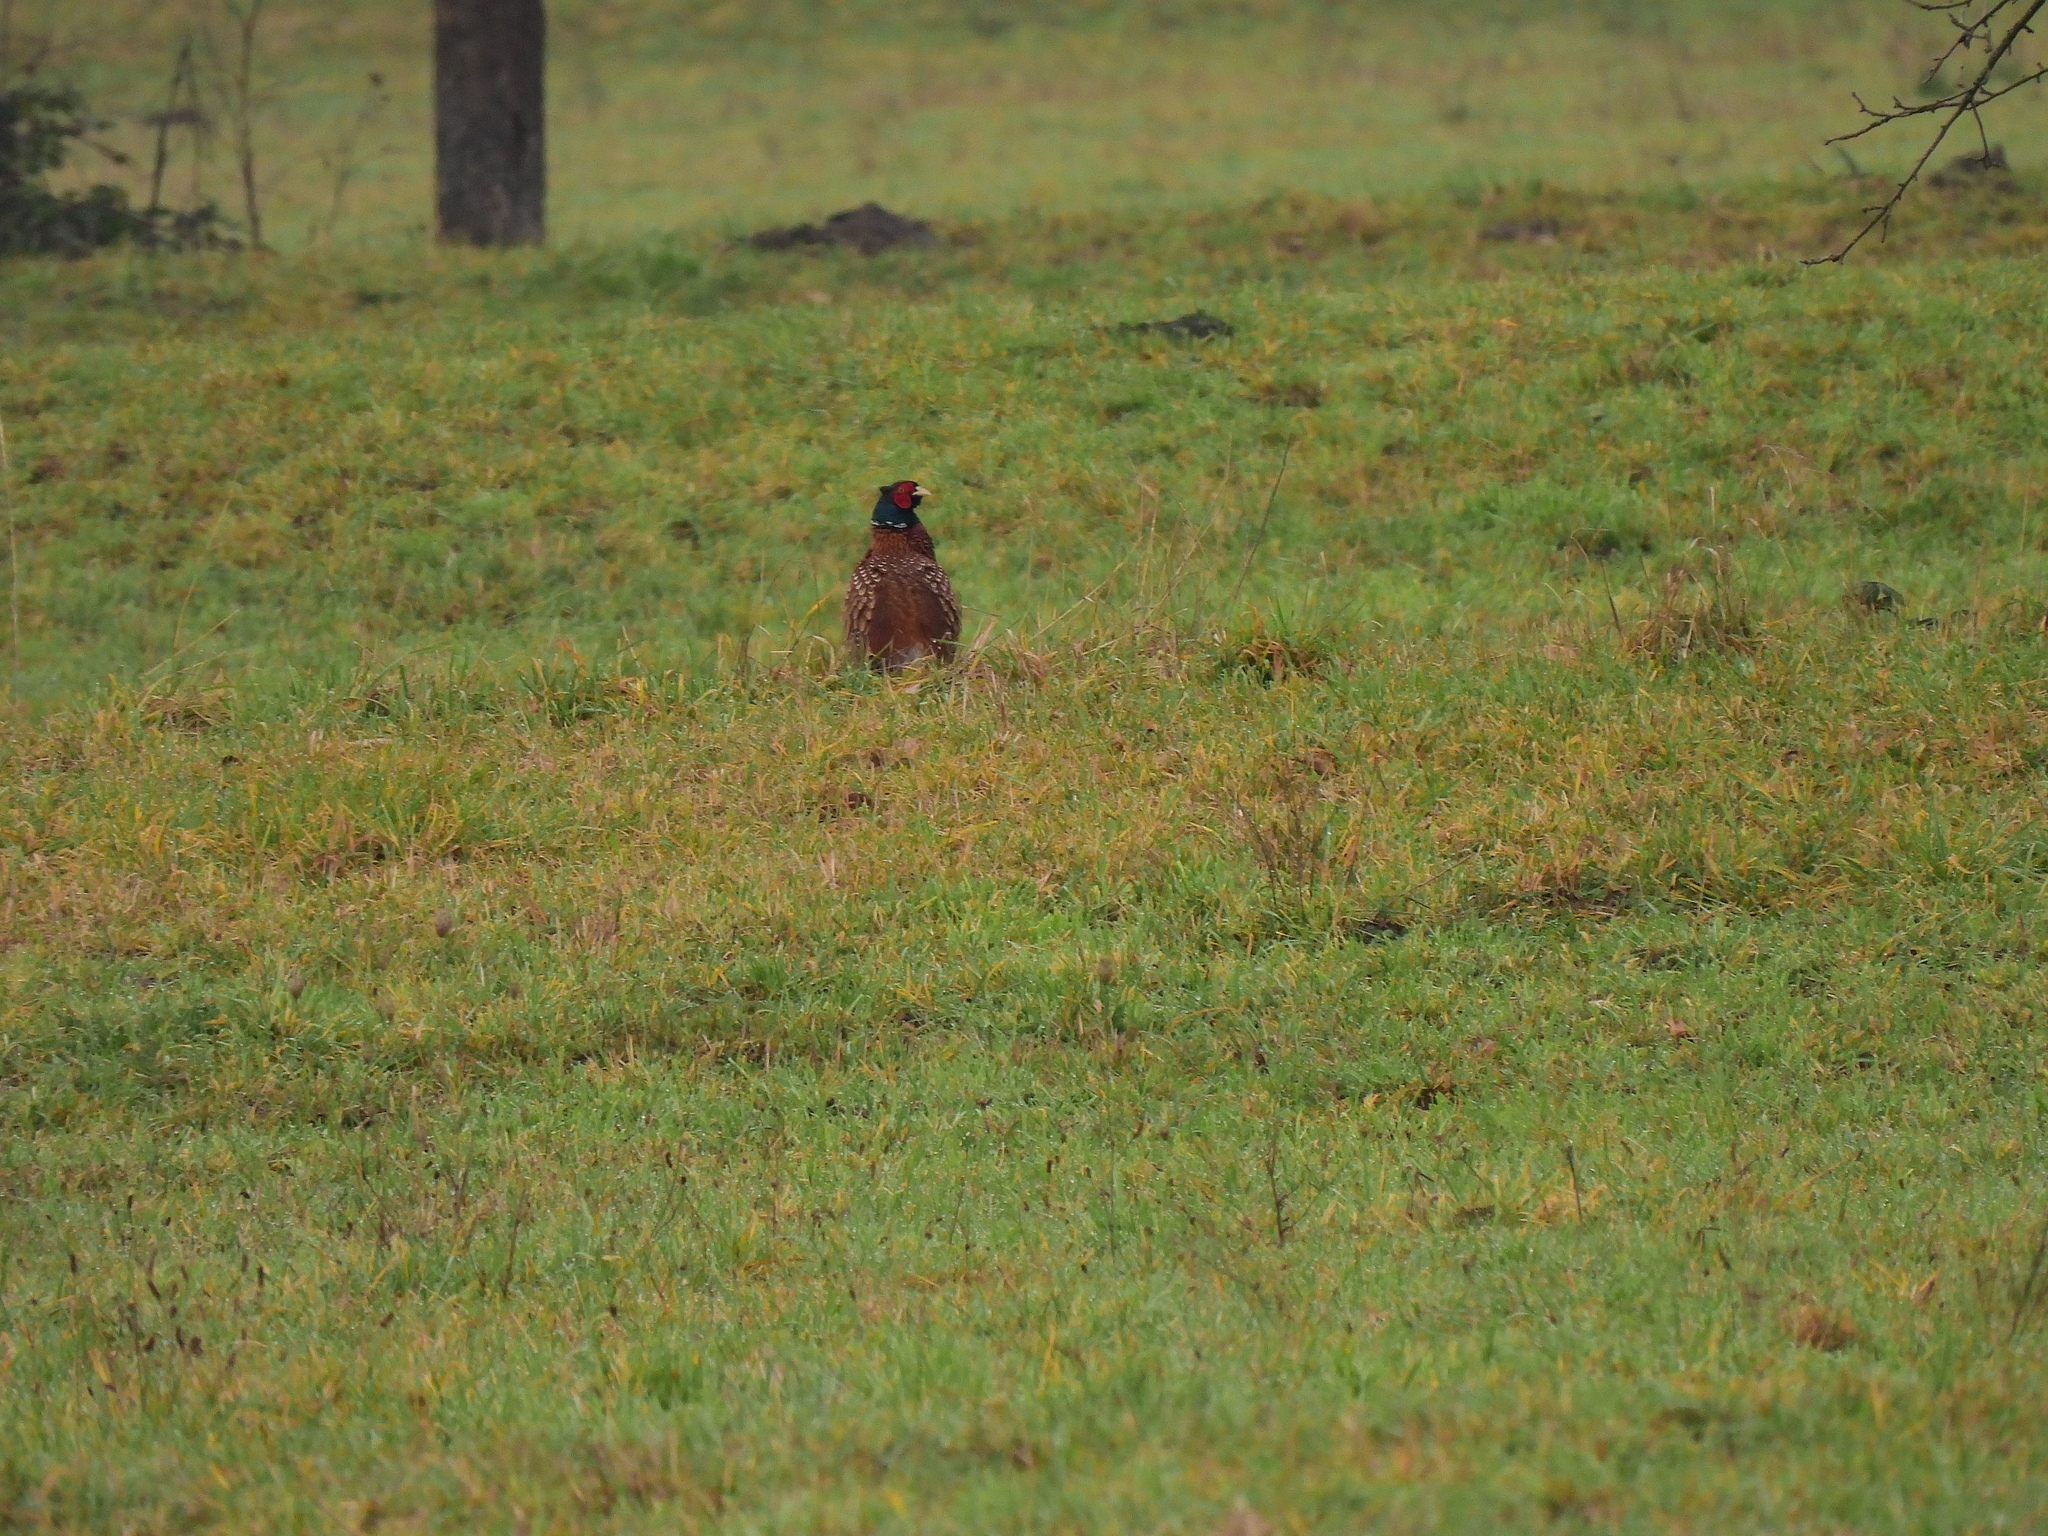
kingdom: Animalia
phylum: Chordata
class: Aves
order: Galliformes
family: Phasianidae
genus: Phasianus
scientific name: Phasianus colchicus
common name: Common pheasant
